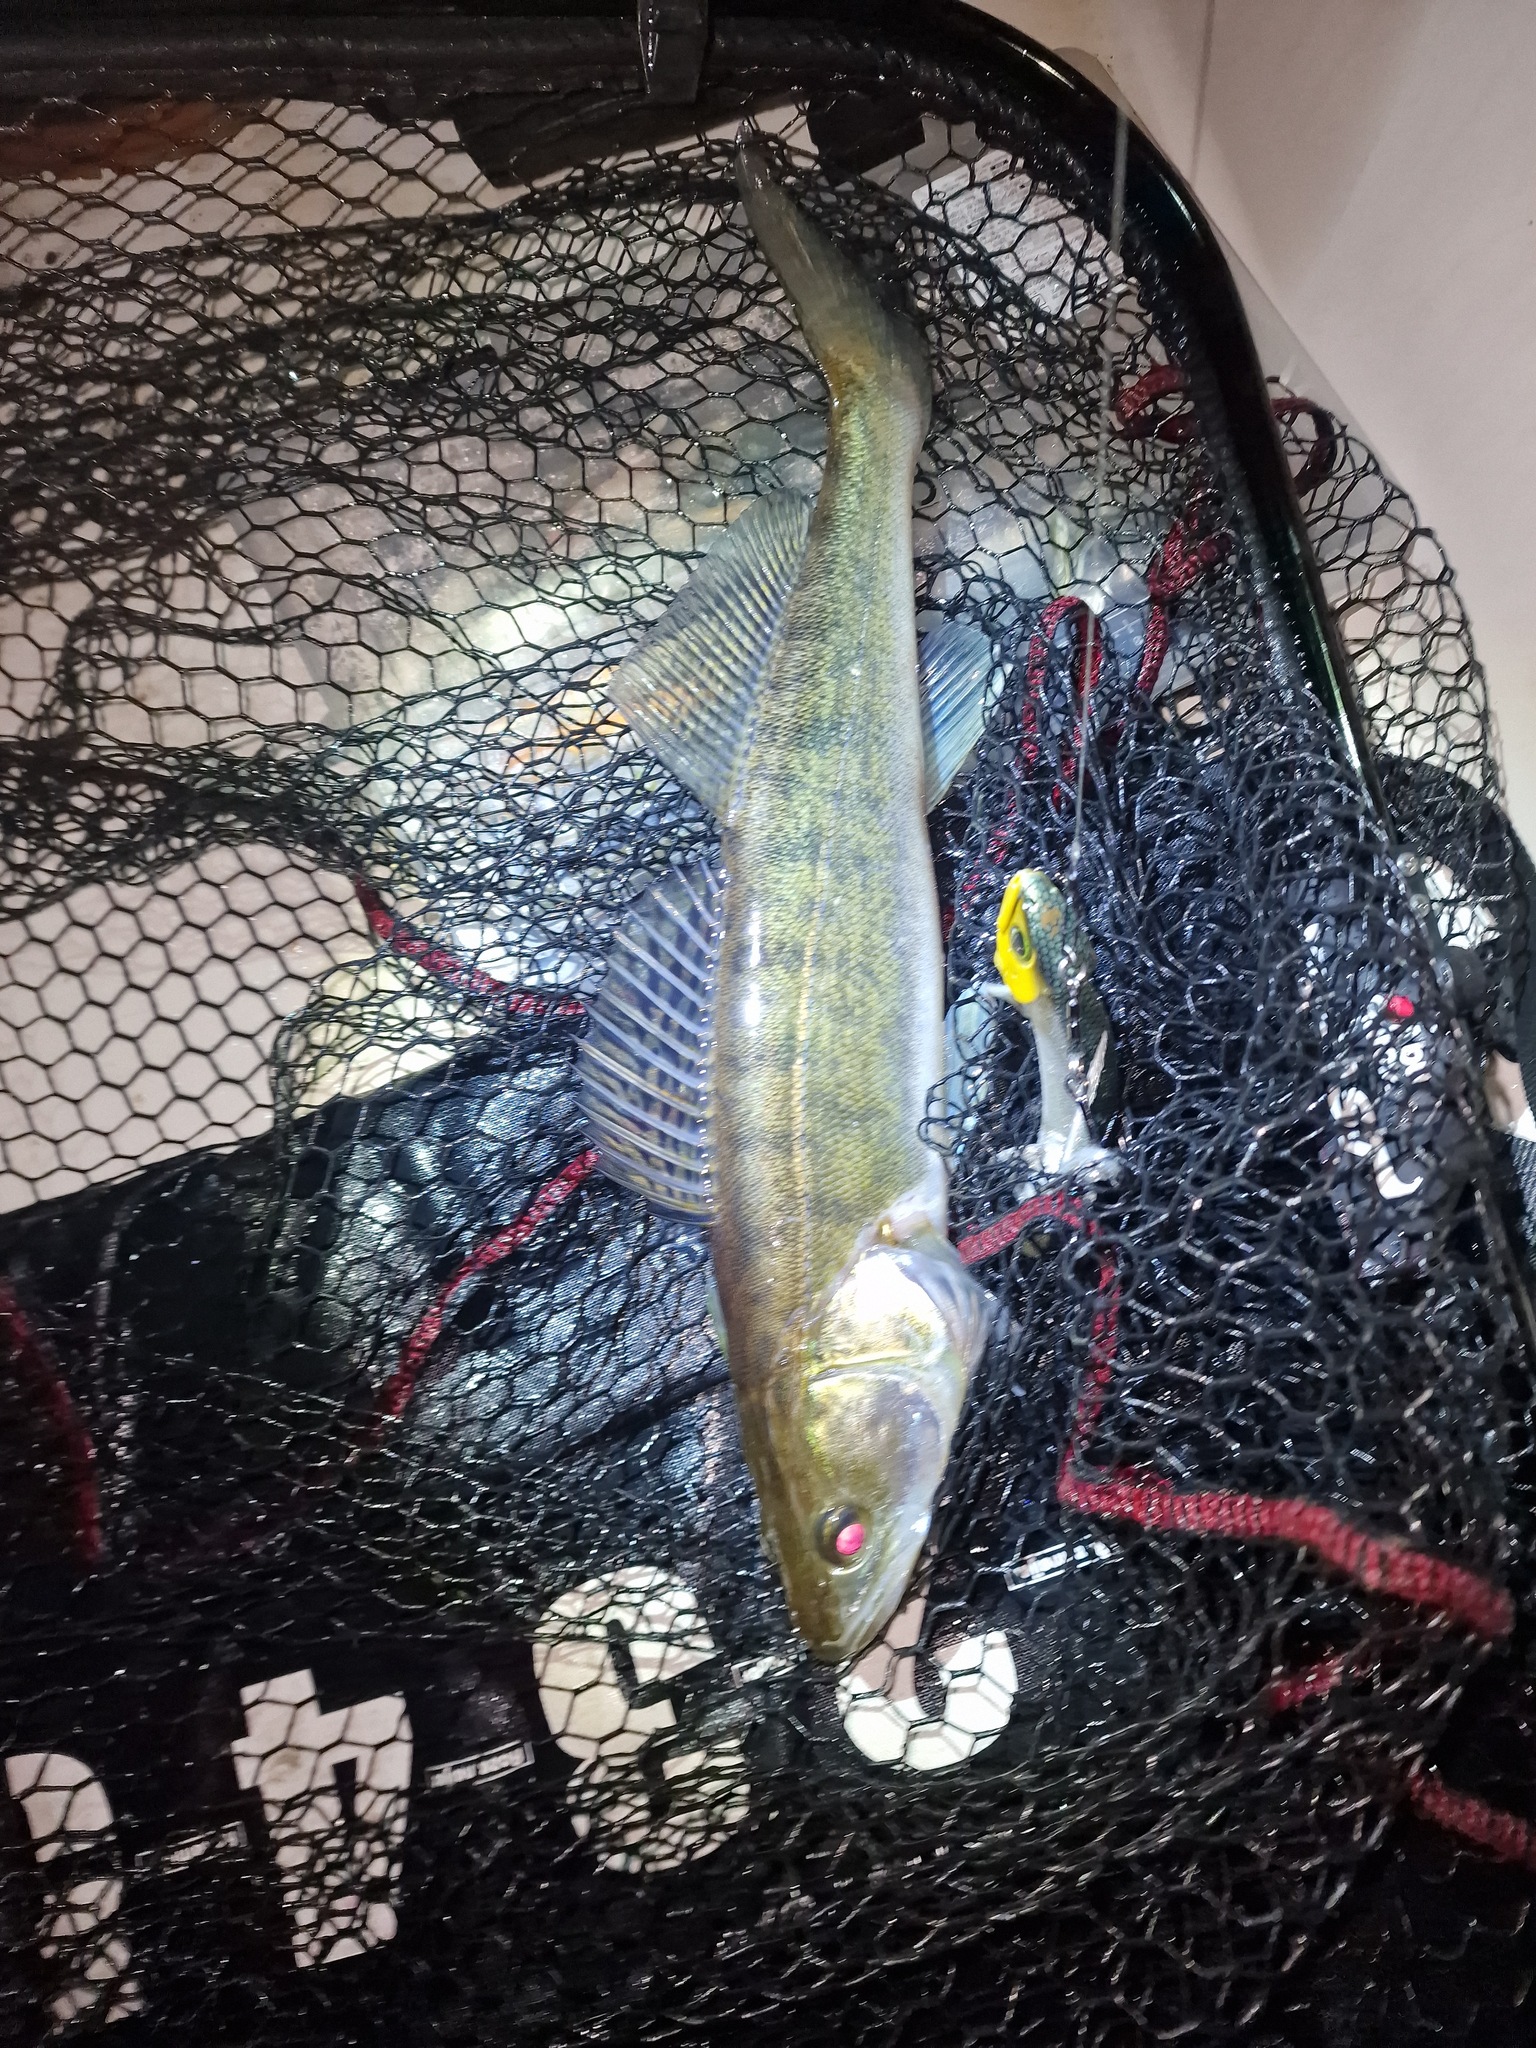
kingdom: Animalia
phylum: Chordata
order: Perciformes
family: Percidae
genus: Sander
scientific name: Sander lucioperca
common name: Pikeperch
